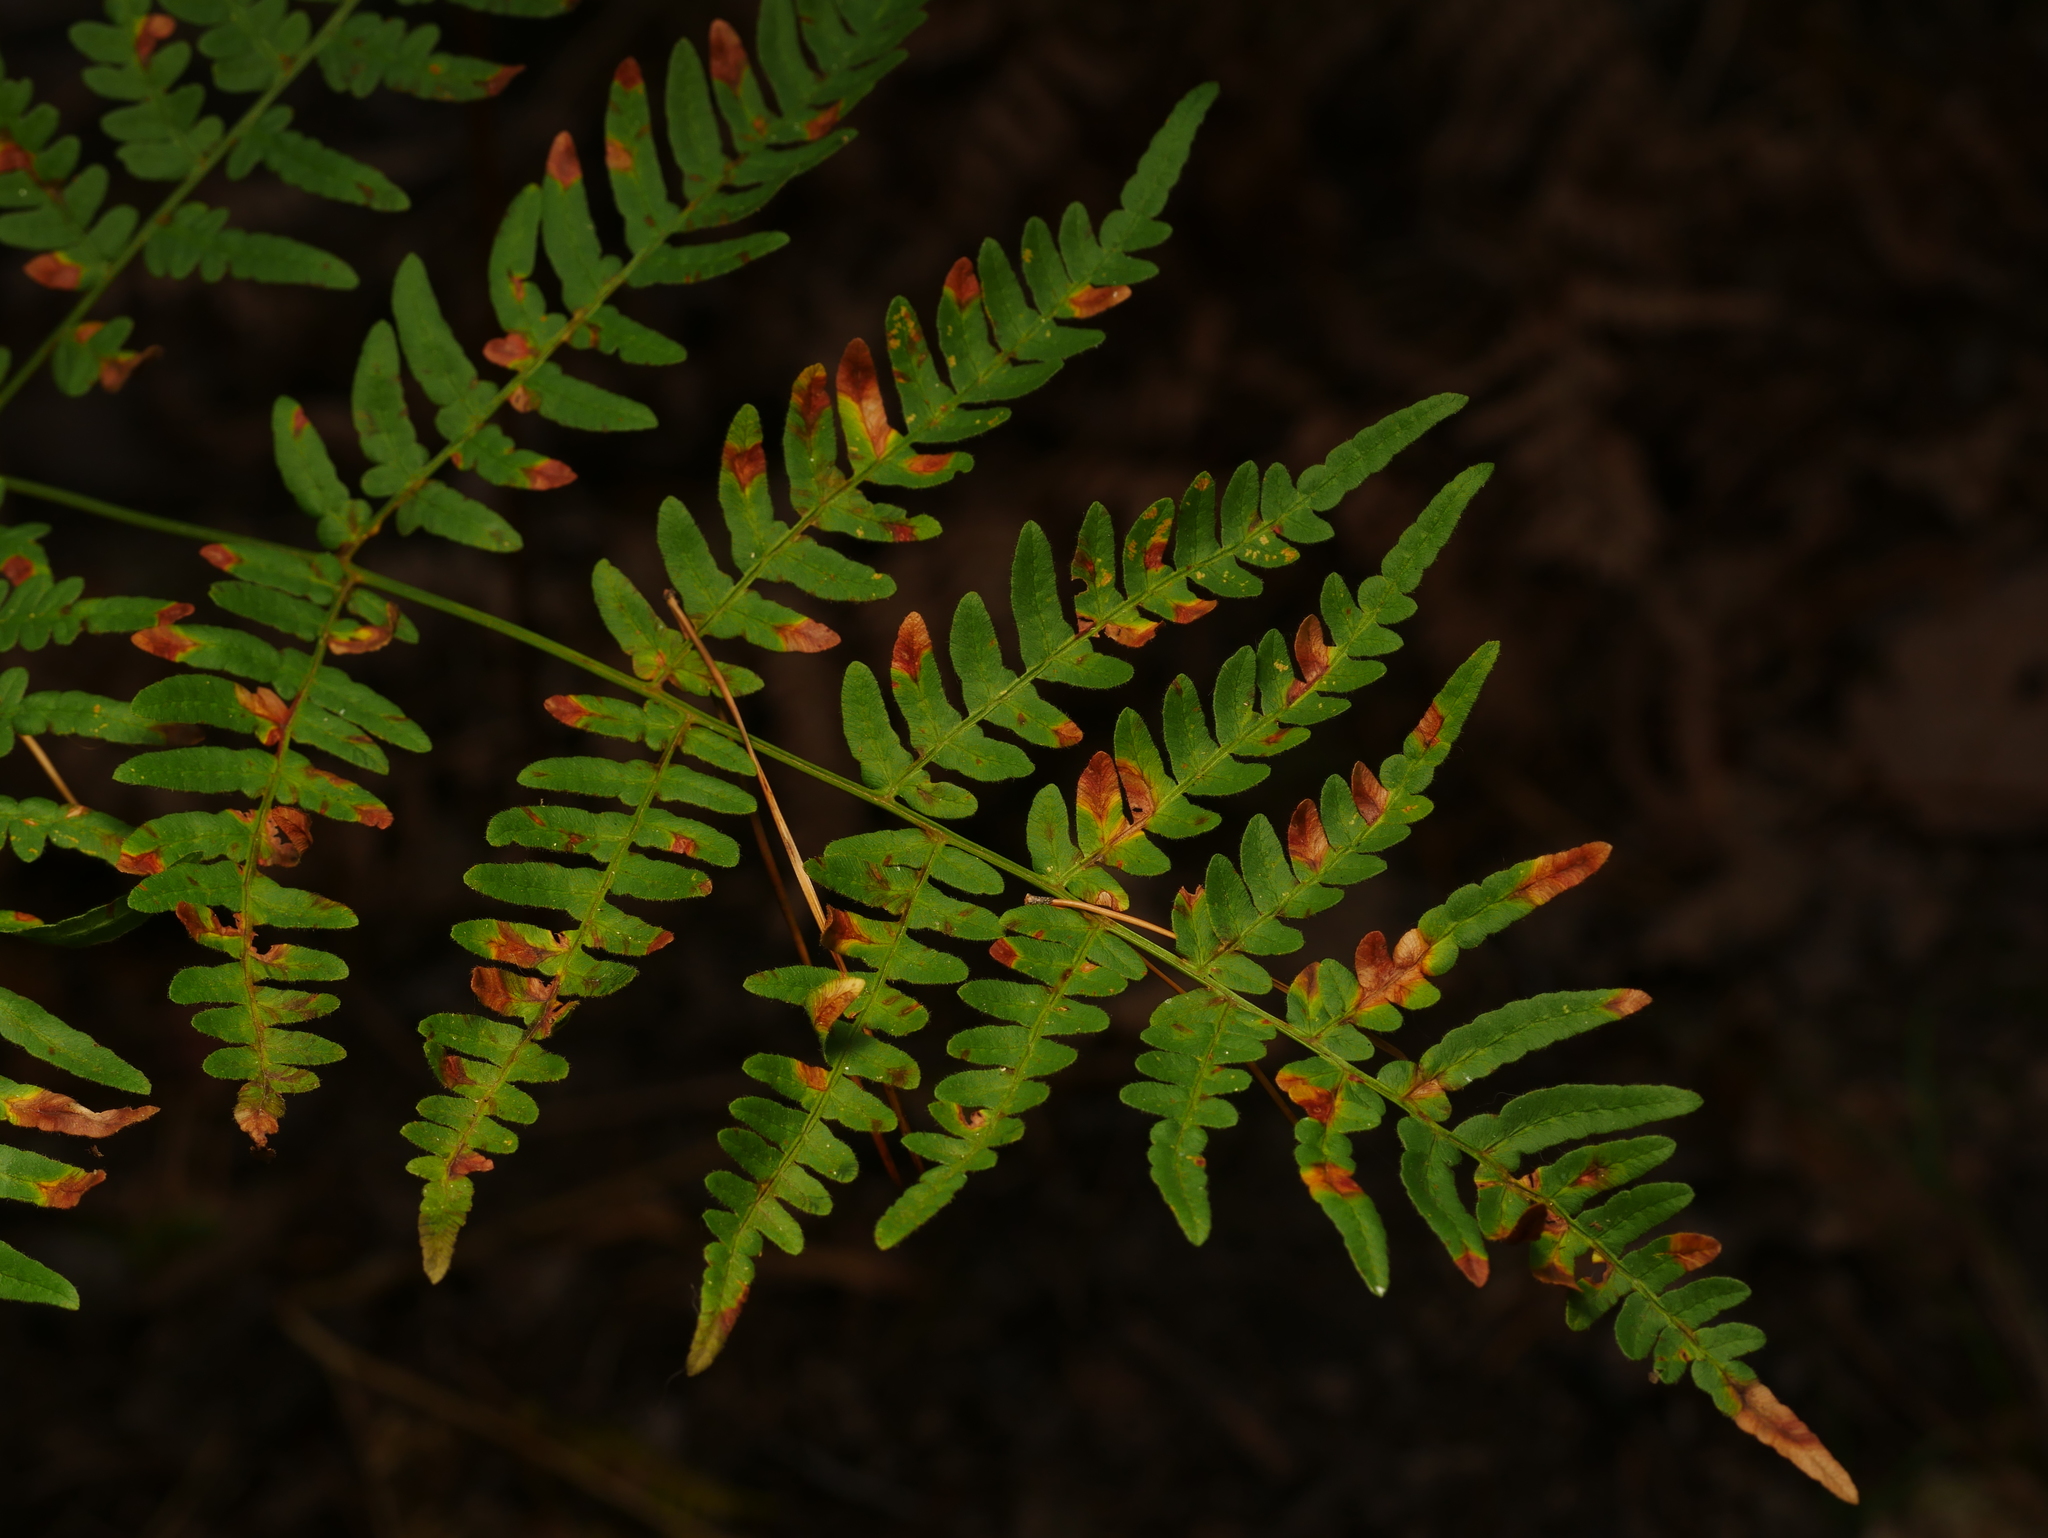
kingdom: Plantae
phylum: Tracheophyta
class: Polypodiopsida
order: Polypodiales
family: Dennstaedtiaceae
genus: Pteridium
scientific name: Pteridium aquilinum
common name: Bracken
